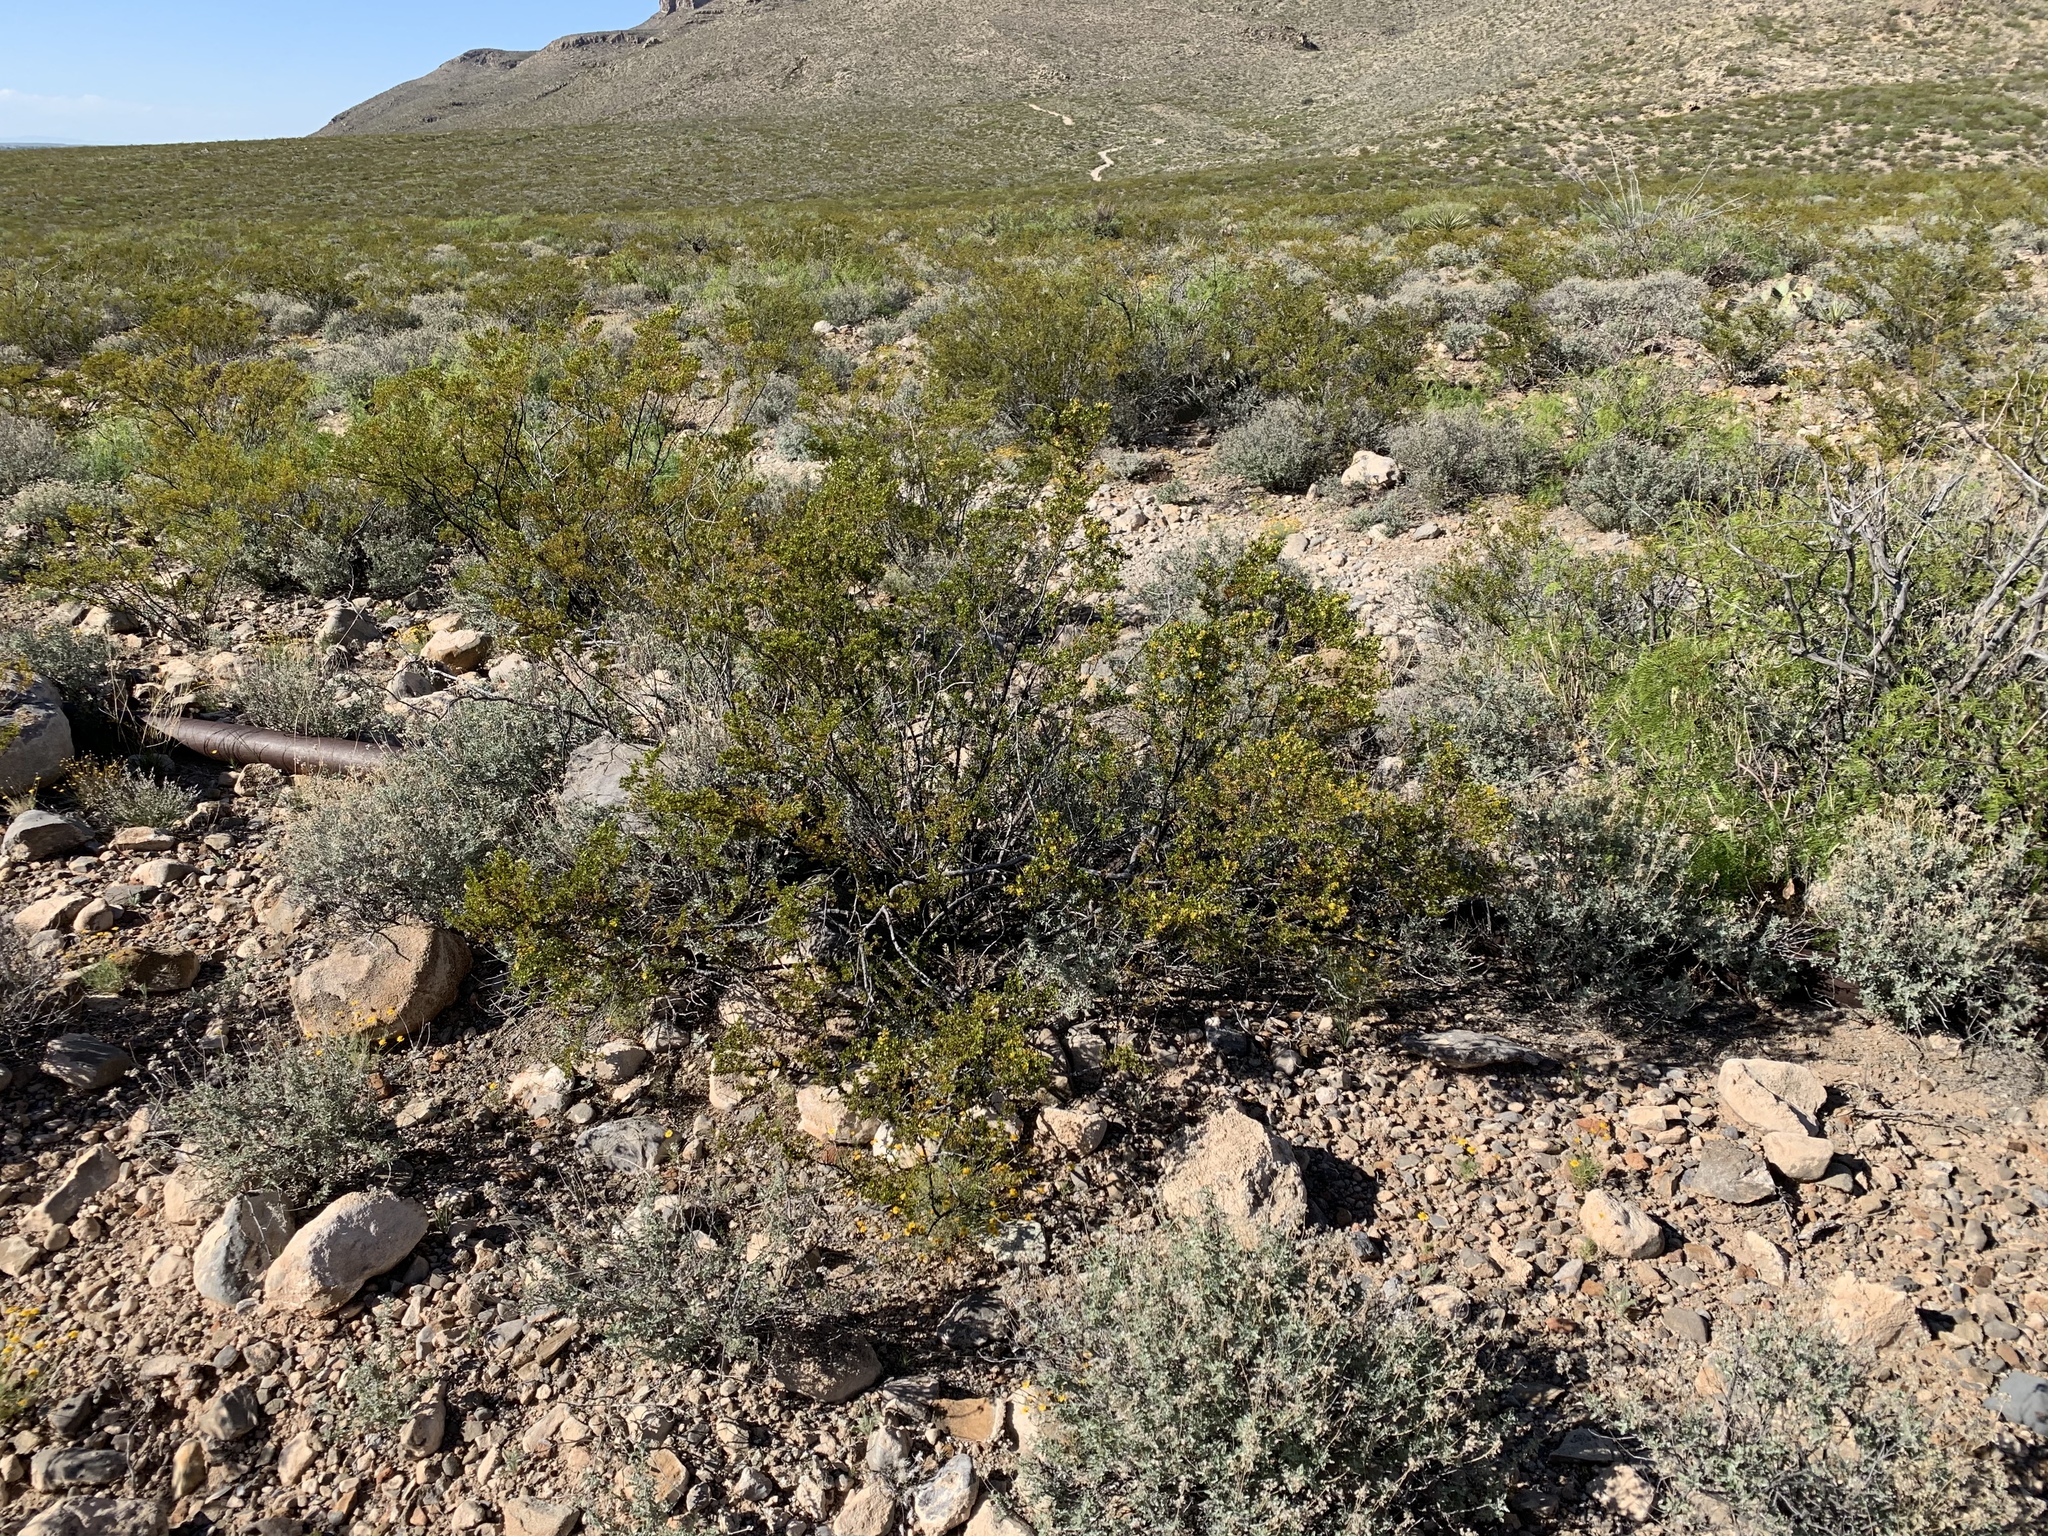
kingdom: Plantae
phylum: Tracheophyta
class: Magnoliopsida
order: Zygophyllales
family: Zygophyllaceae
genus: Larrea
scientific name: Larrea tridentata
